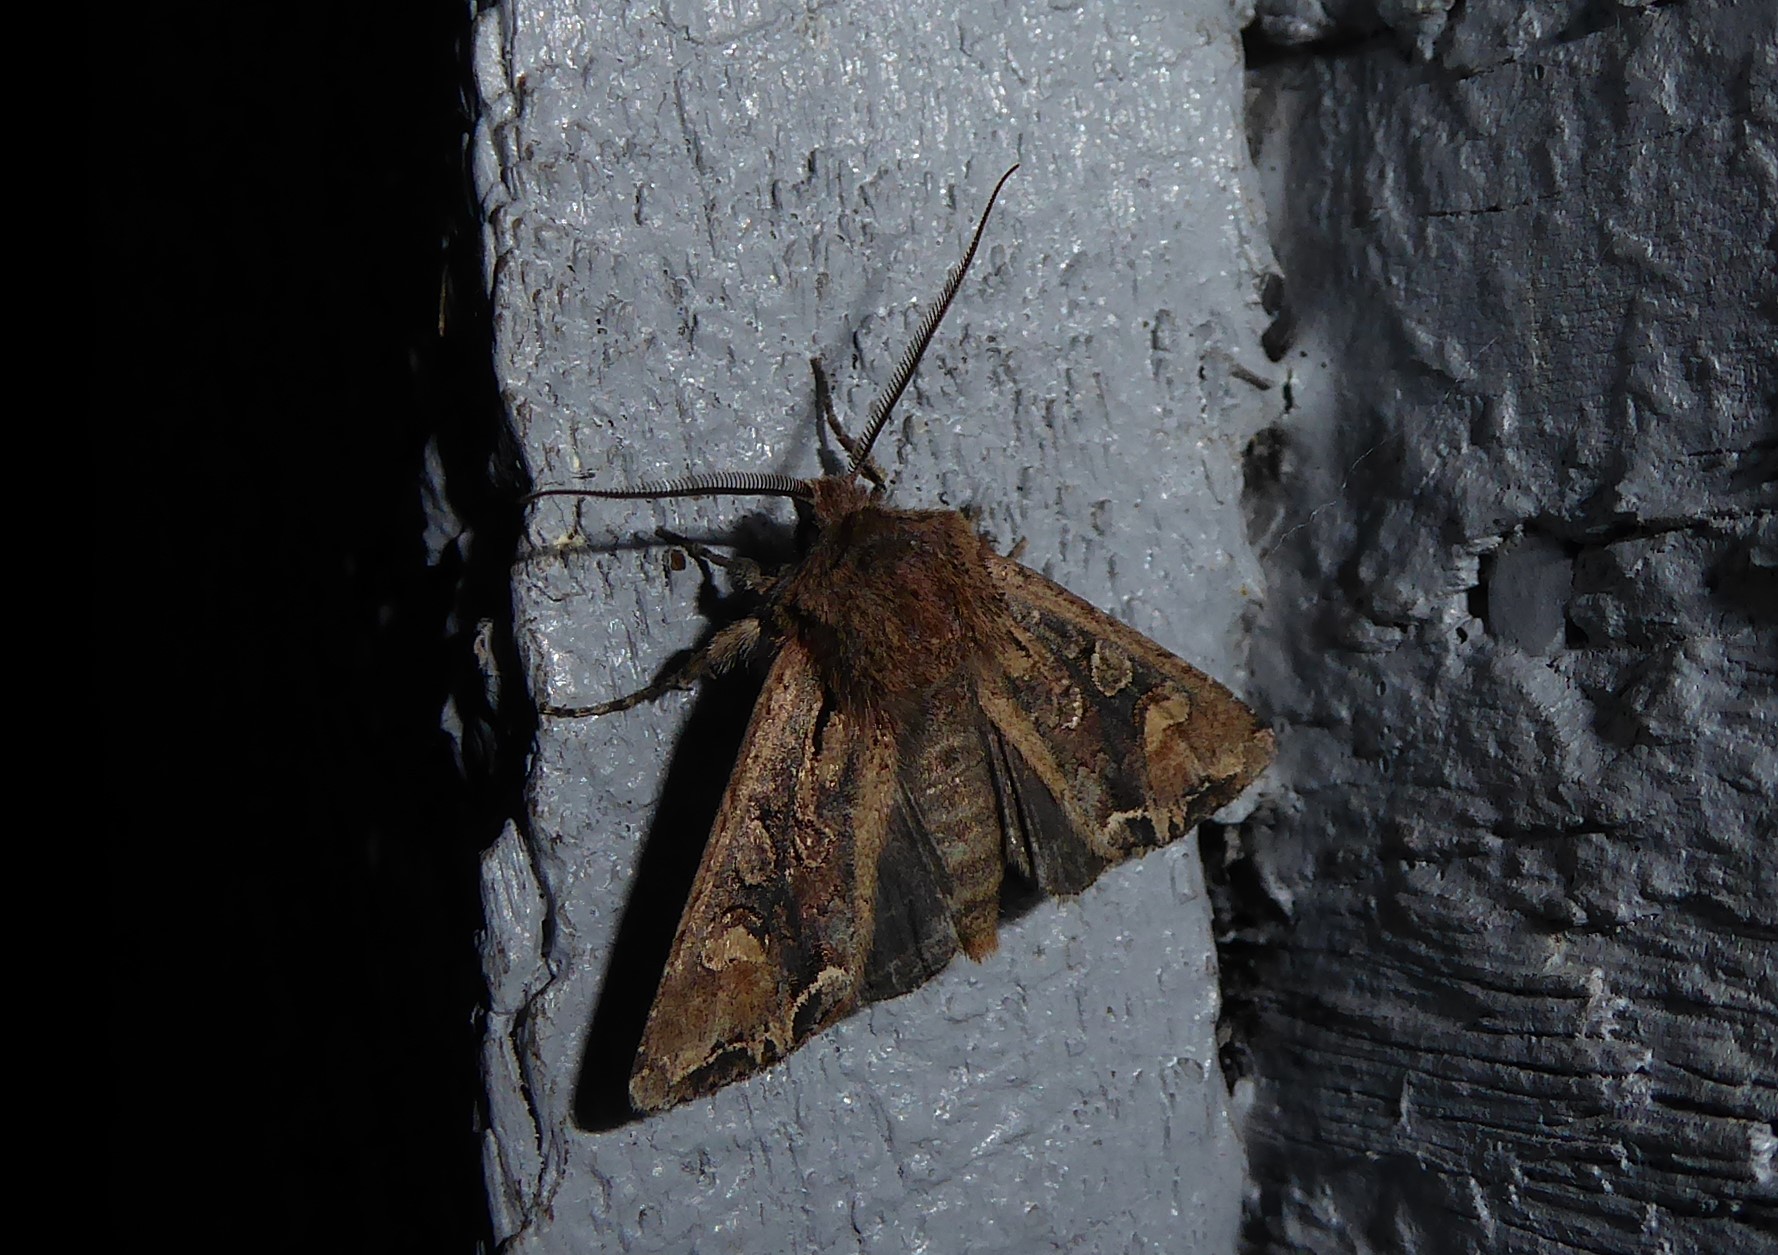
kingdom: Animalia
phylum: Arthropoda
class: Insecta
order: Lepidoptera
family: Noctuidae
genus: Ichneutica
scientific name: Ichneutica
